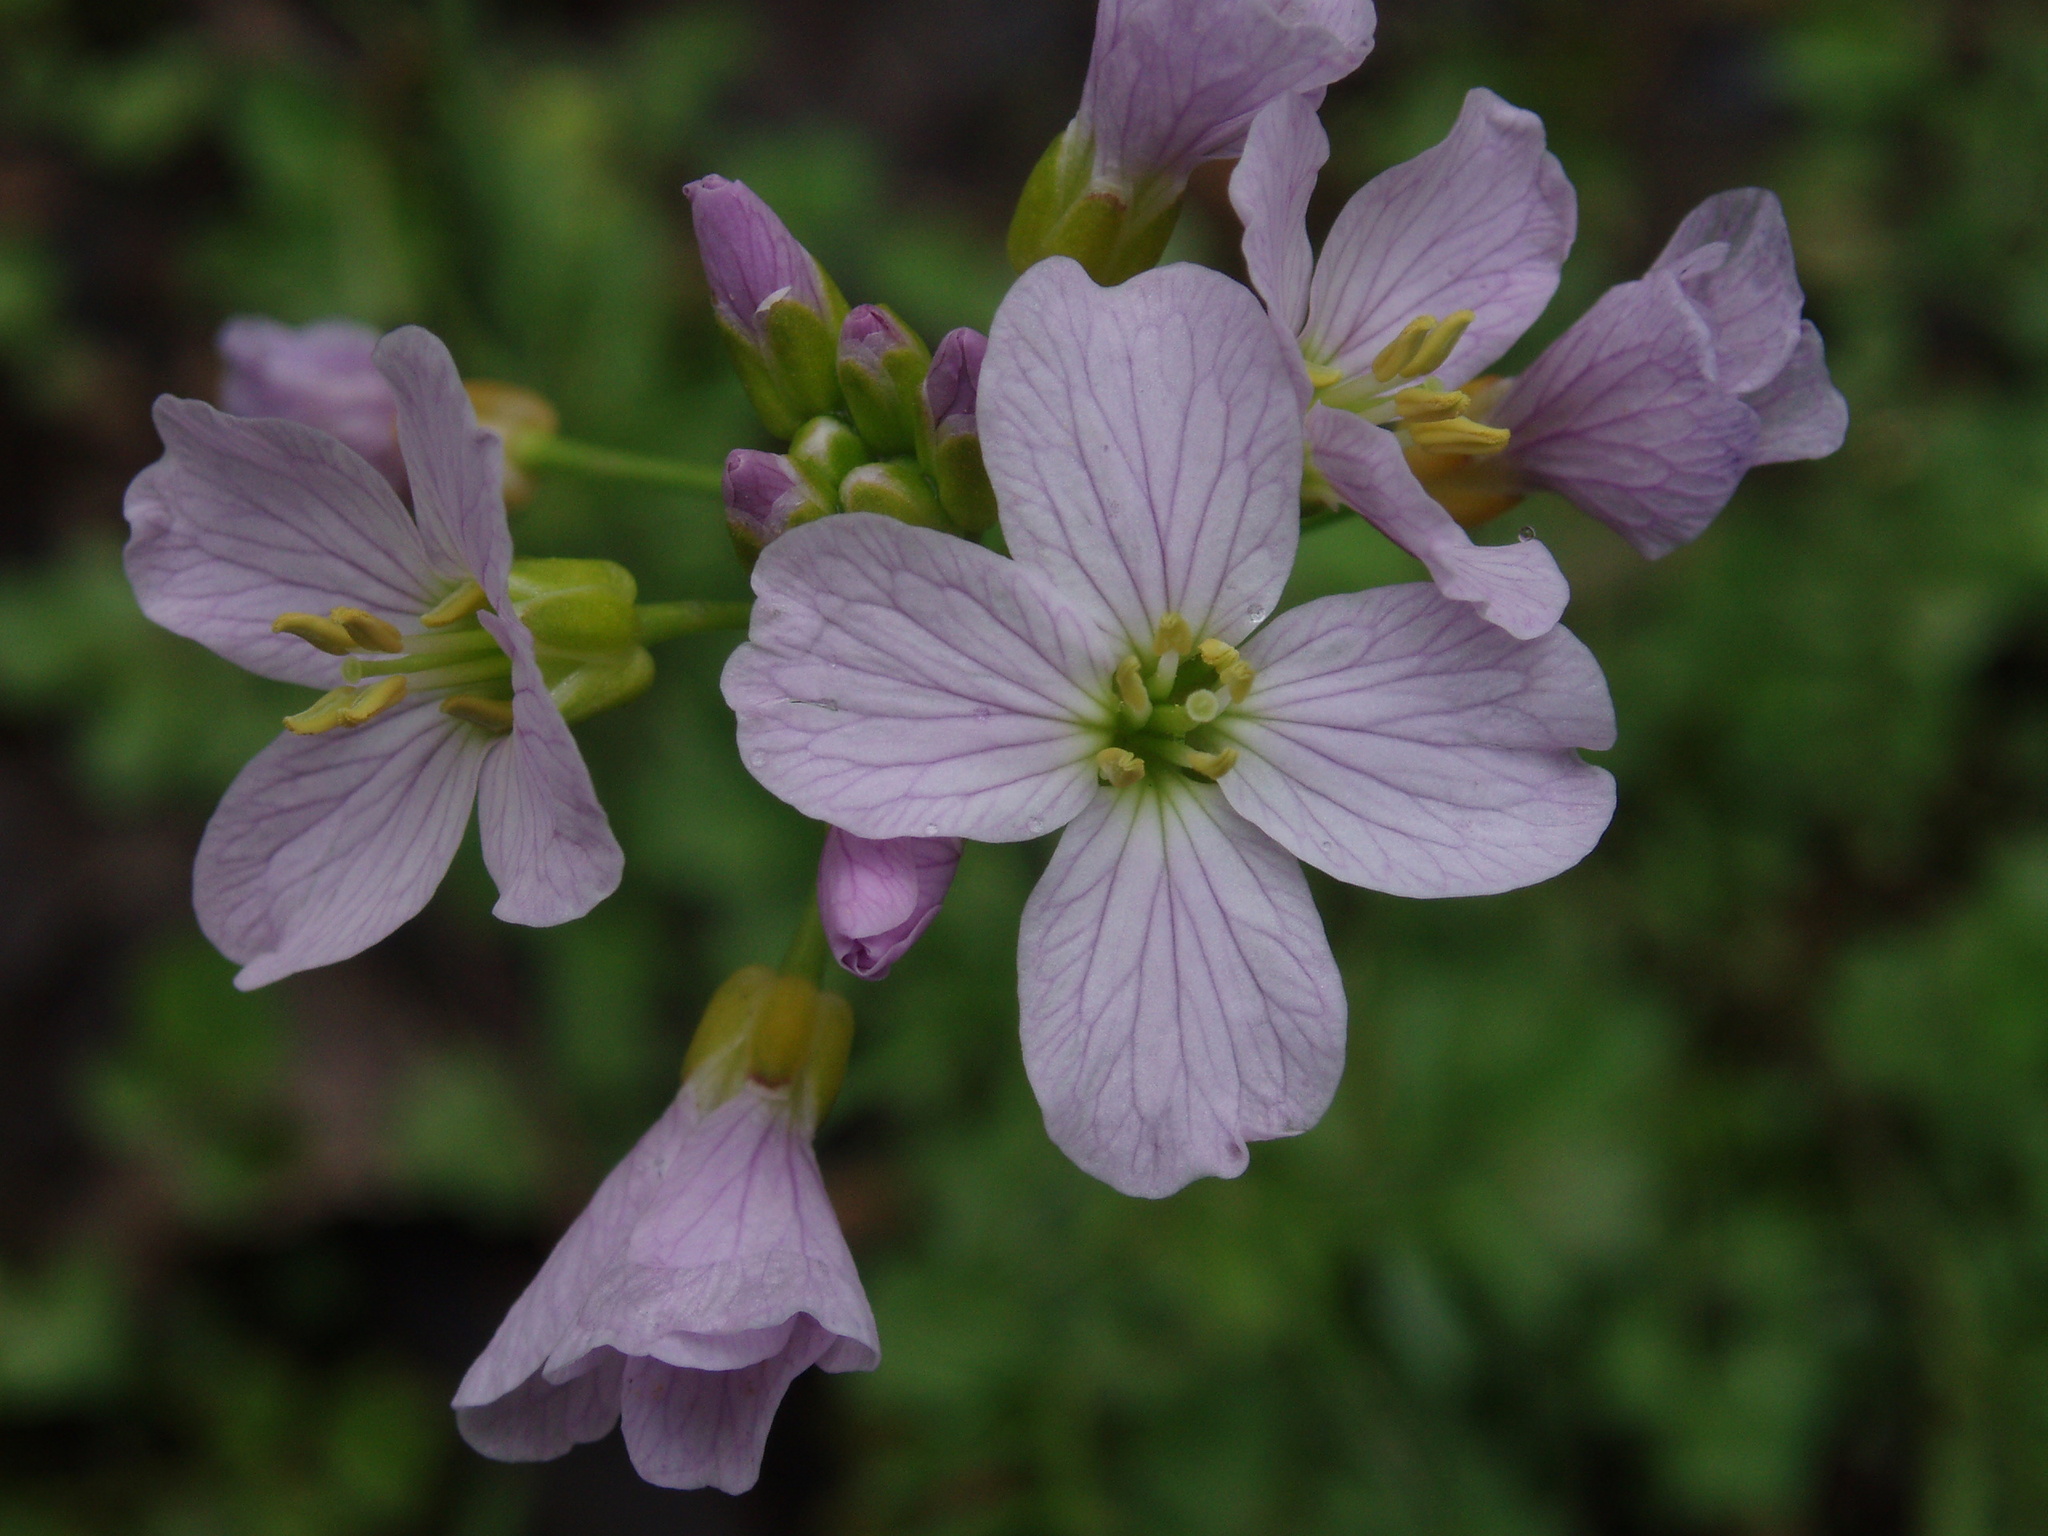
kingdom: Plantae
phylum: Tracheophyta
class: Magnoliopsida
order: Brassicales
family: Brassicaceae
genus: Cardamine
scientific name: Cardamine pratensis
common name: Cuckoo flower
